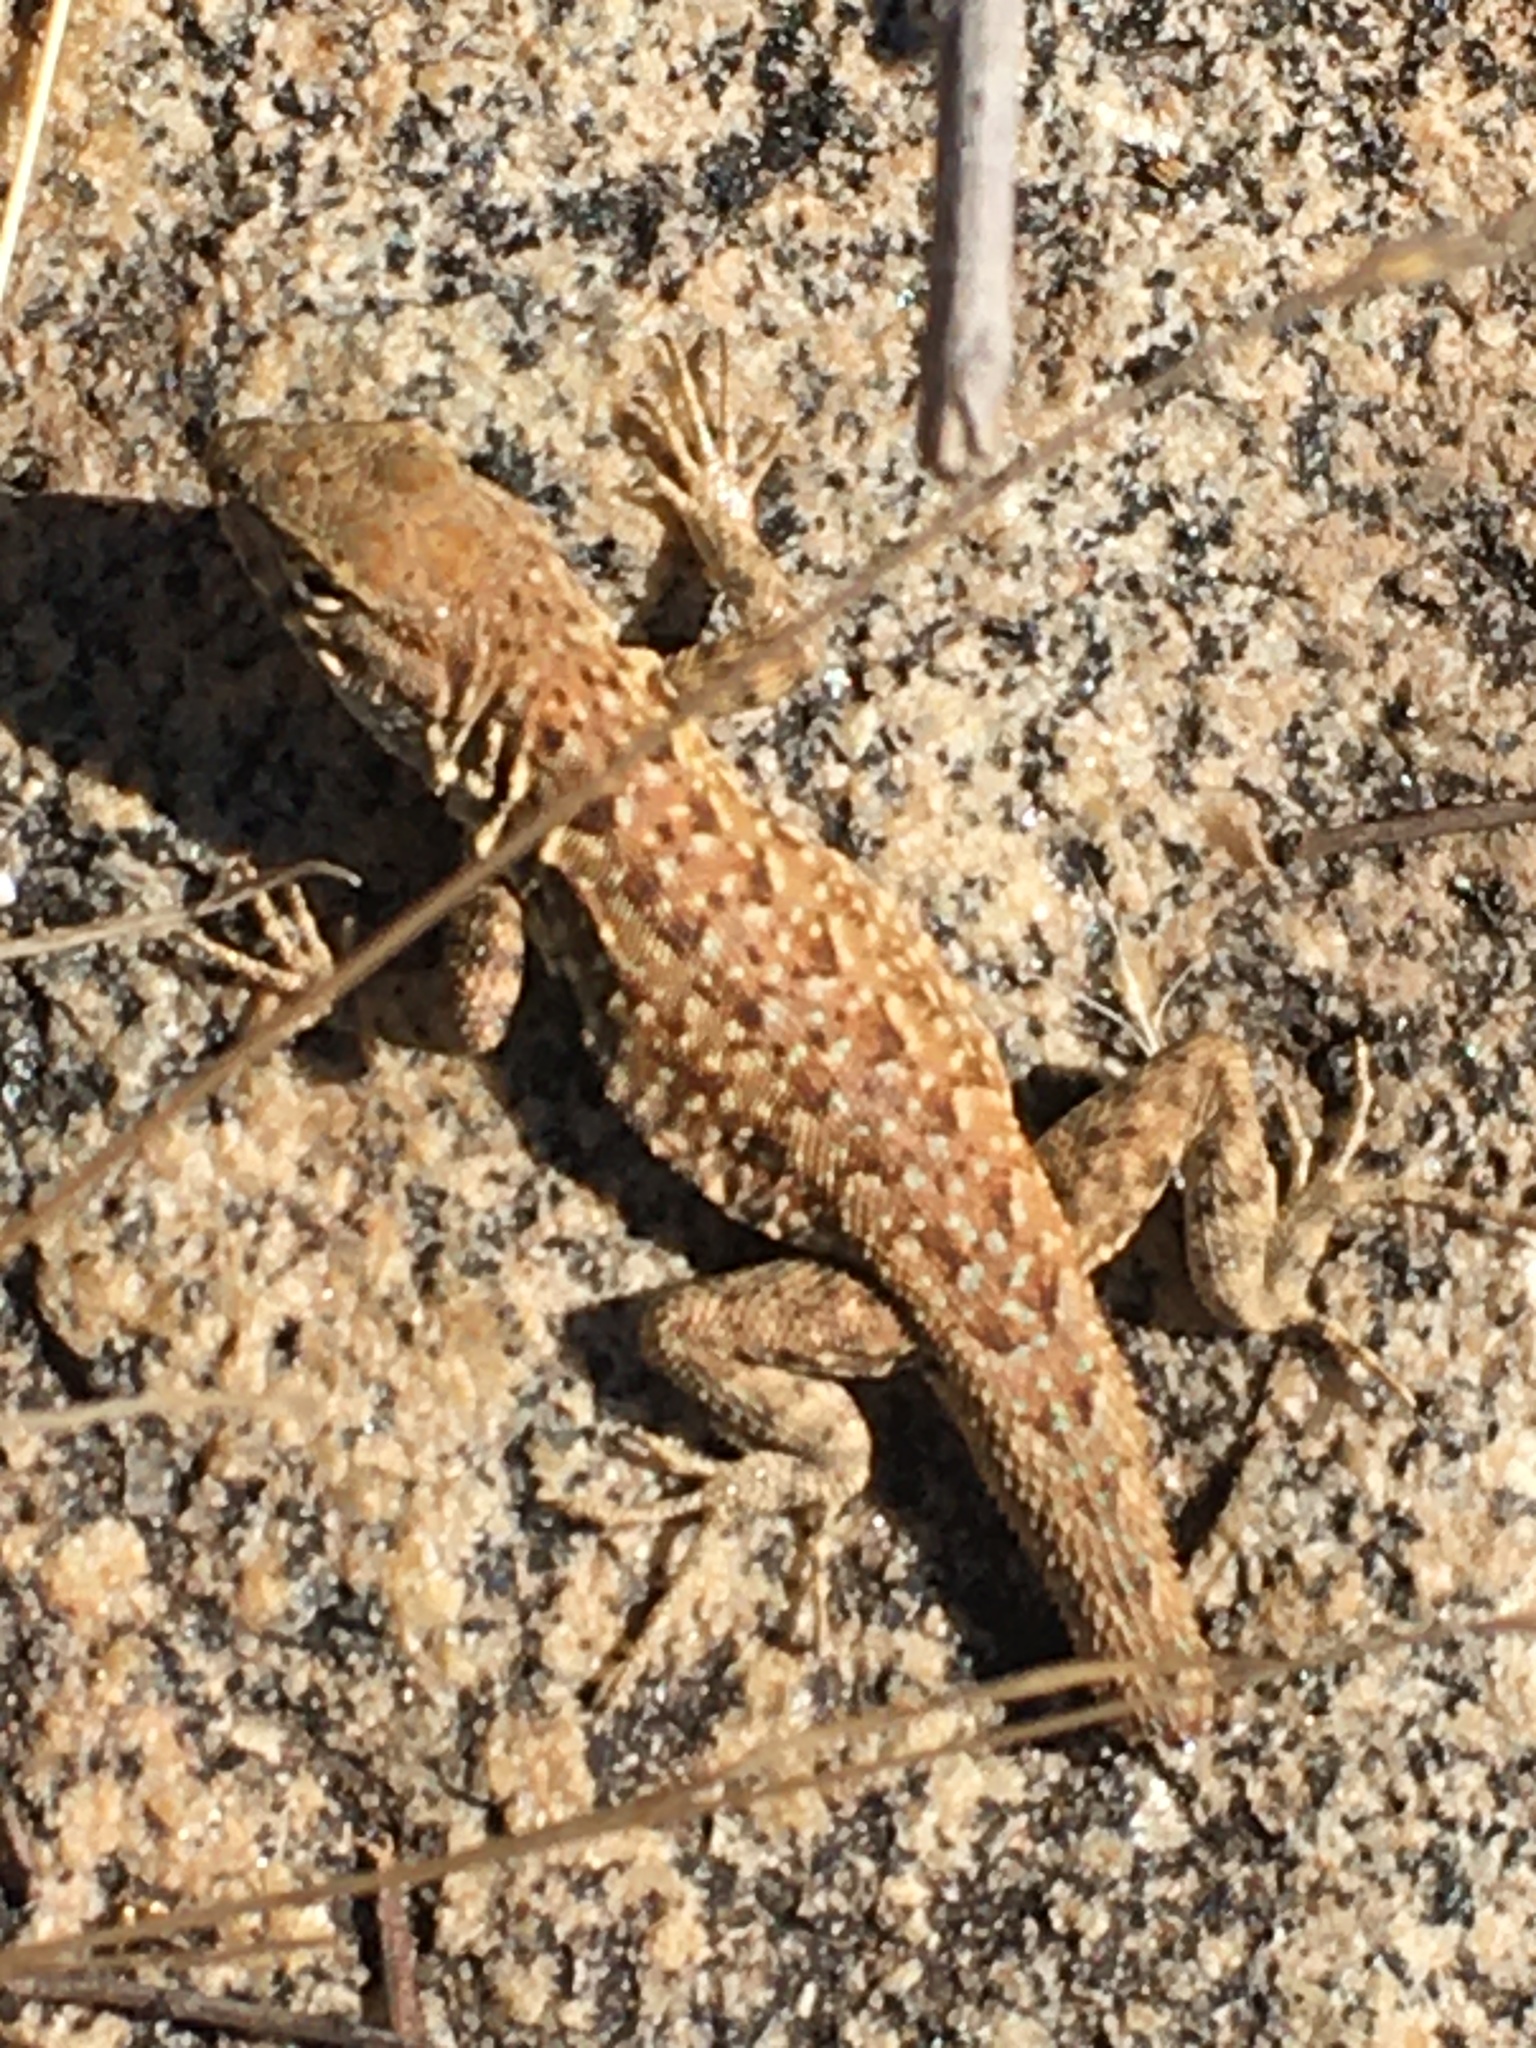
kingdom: Animalia
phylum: Chordata
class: Squamata
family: Phrynosomatidae
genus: Uta
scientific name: Uta stansburiana
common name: Side-blotched lizard
